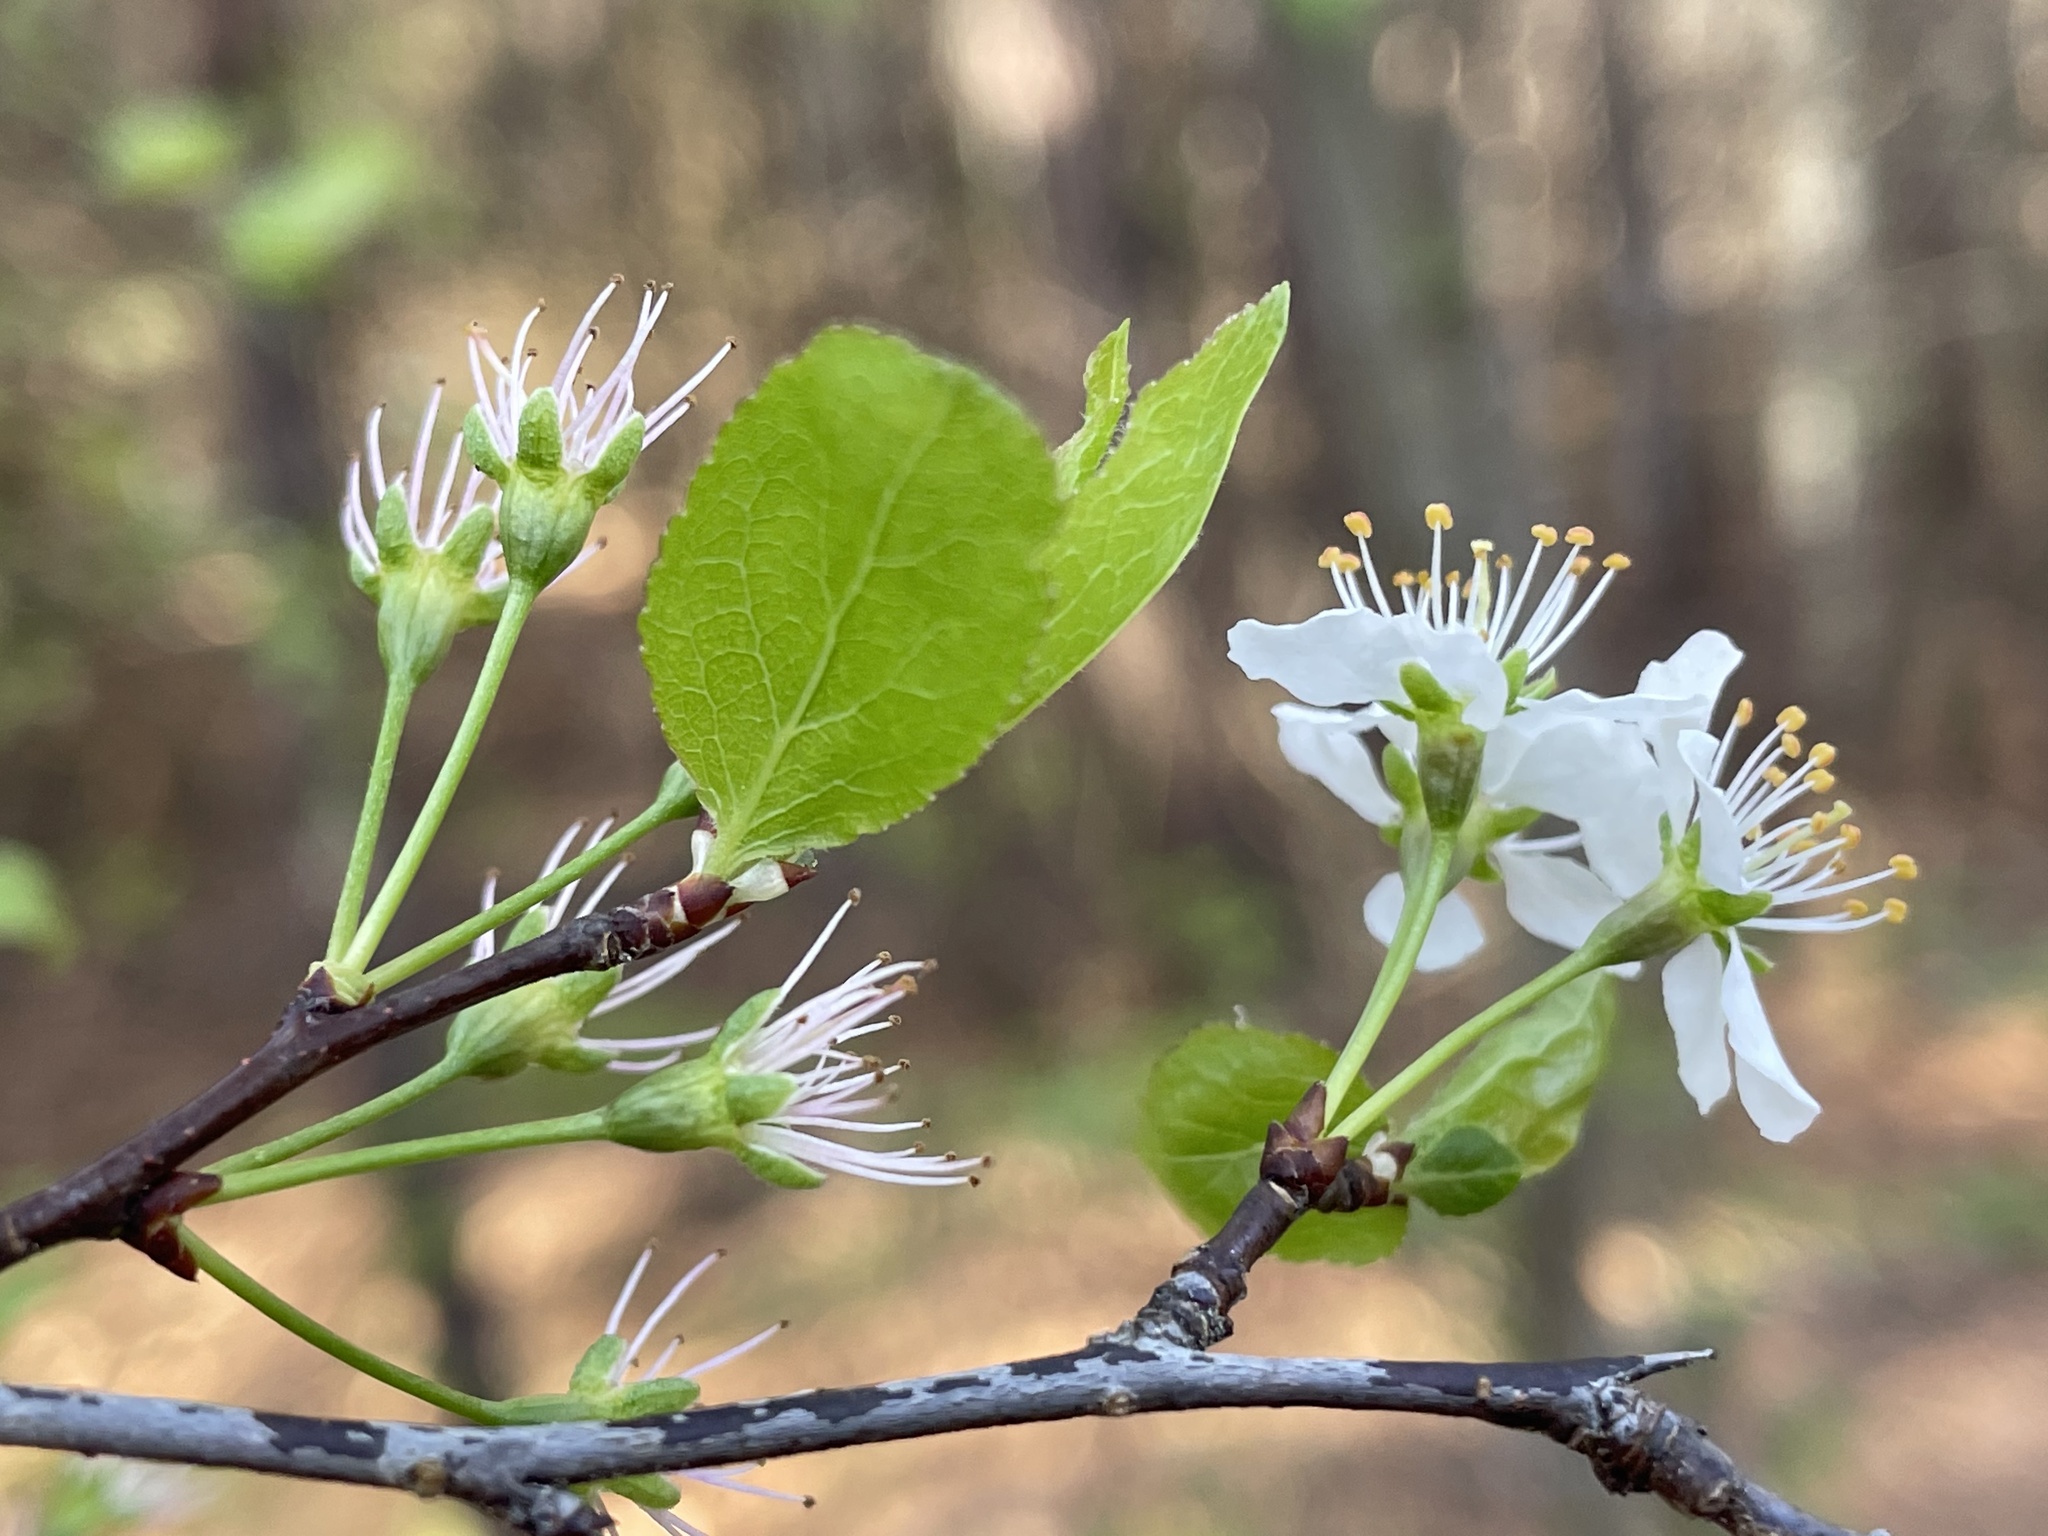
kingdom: Fungi
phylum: Ascomycota
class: Dothideomycetes
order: Venturiales
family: Venturiaceae
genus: Apiosporina
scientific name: Apiosporina morbosa
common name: Black knot
